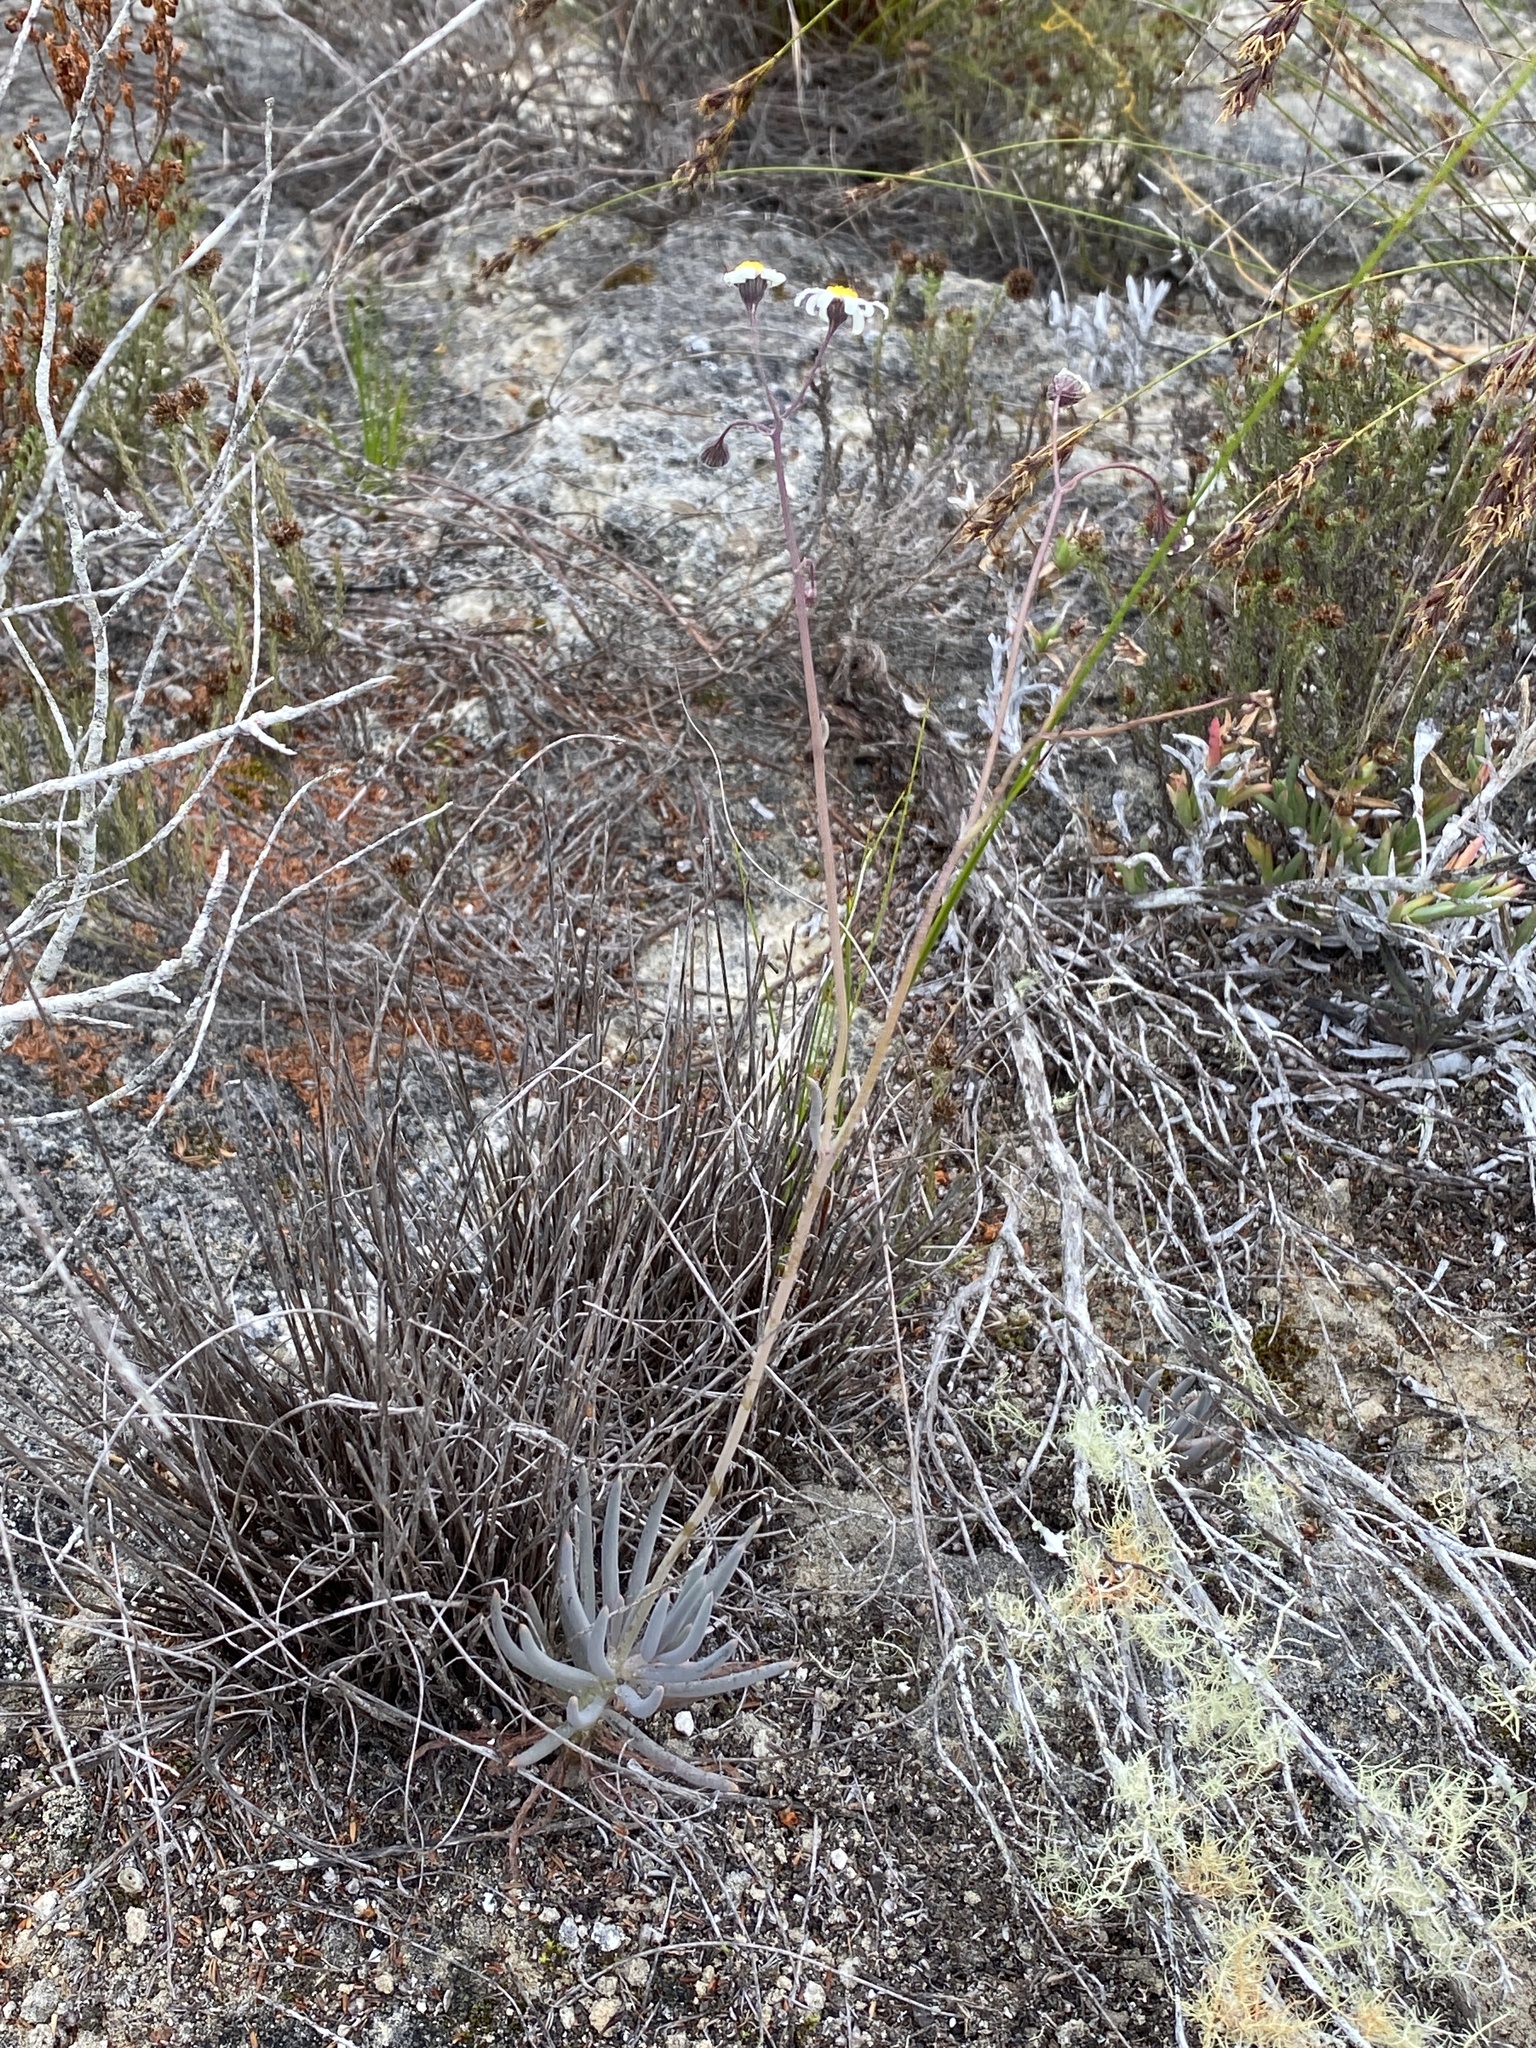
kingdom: Plantae
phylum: Tracheophyta
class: Magnoliopsida
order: Asterales
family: Asteraceae
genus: Crassothonna
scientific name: Crassothonna capensis
